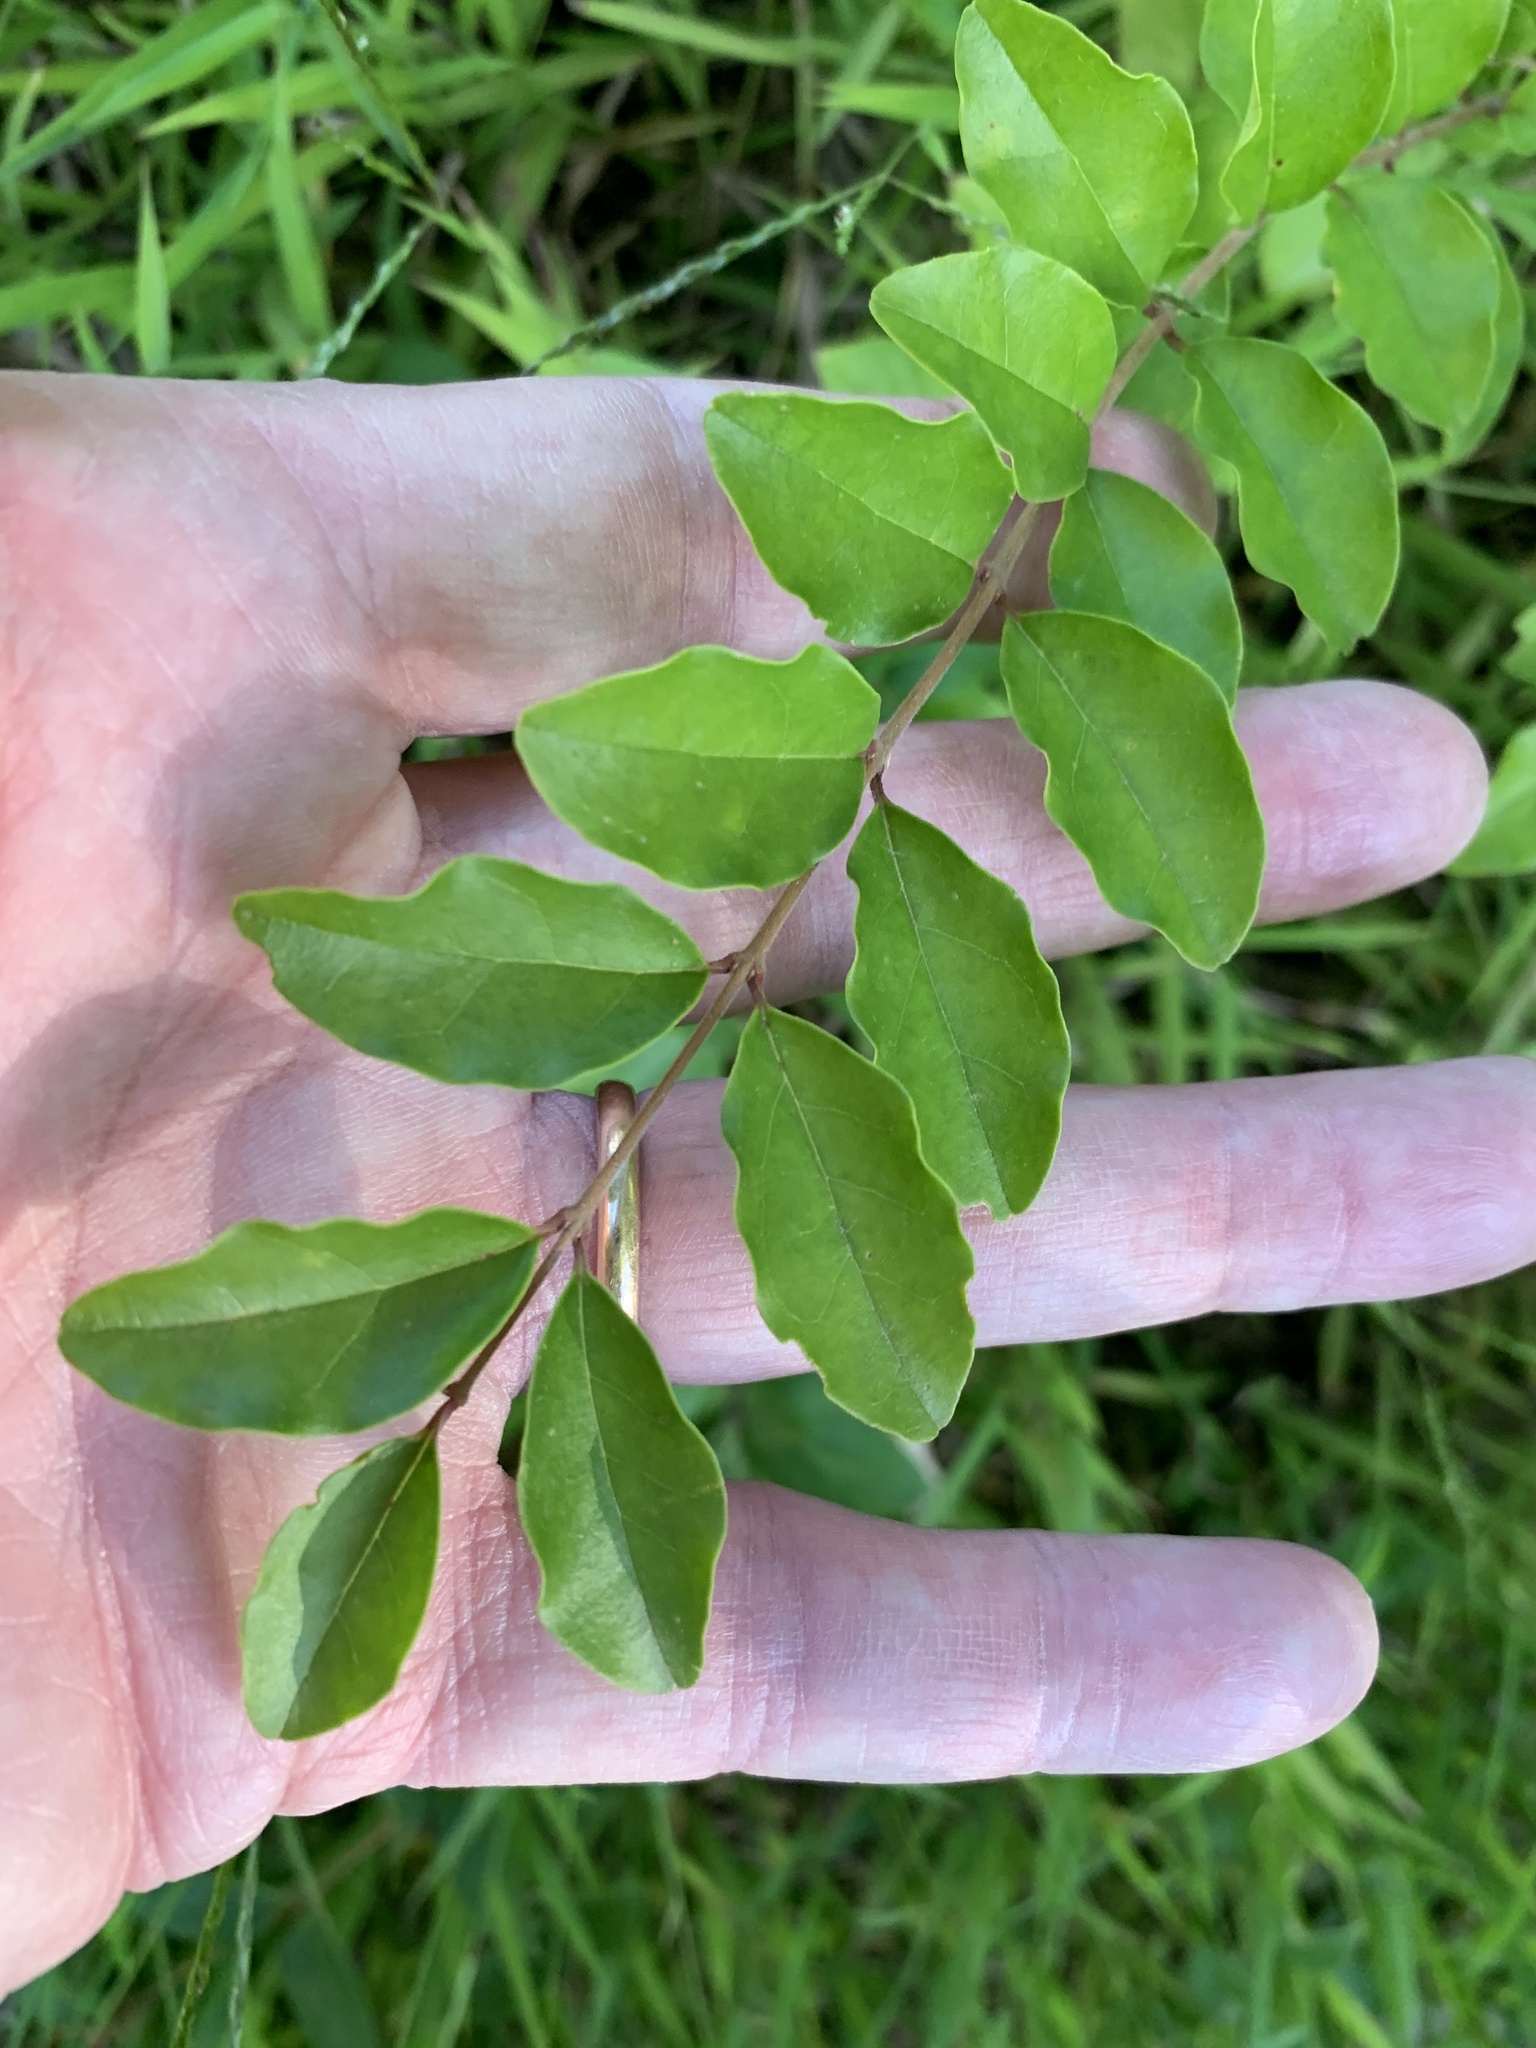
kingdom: Plantae
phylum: Tracheophyta
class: Magnoliopsida
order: Lamiales
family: Oleaceae
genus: Ligustrum
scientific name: Ligustrum sinense
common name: Chinese privet
